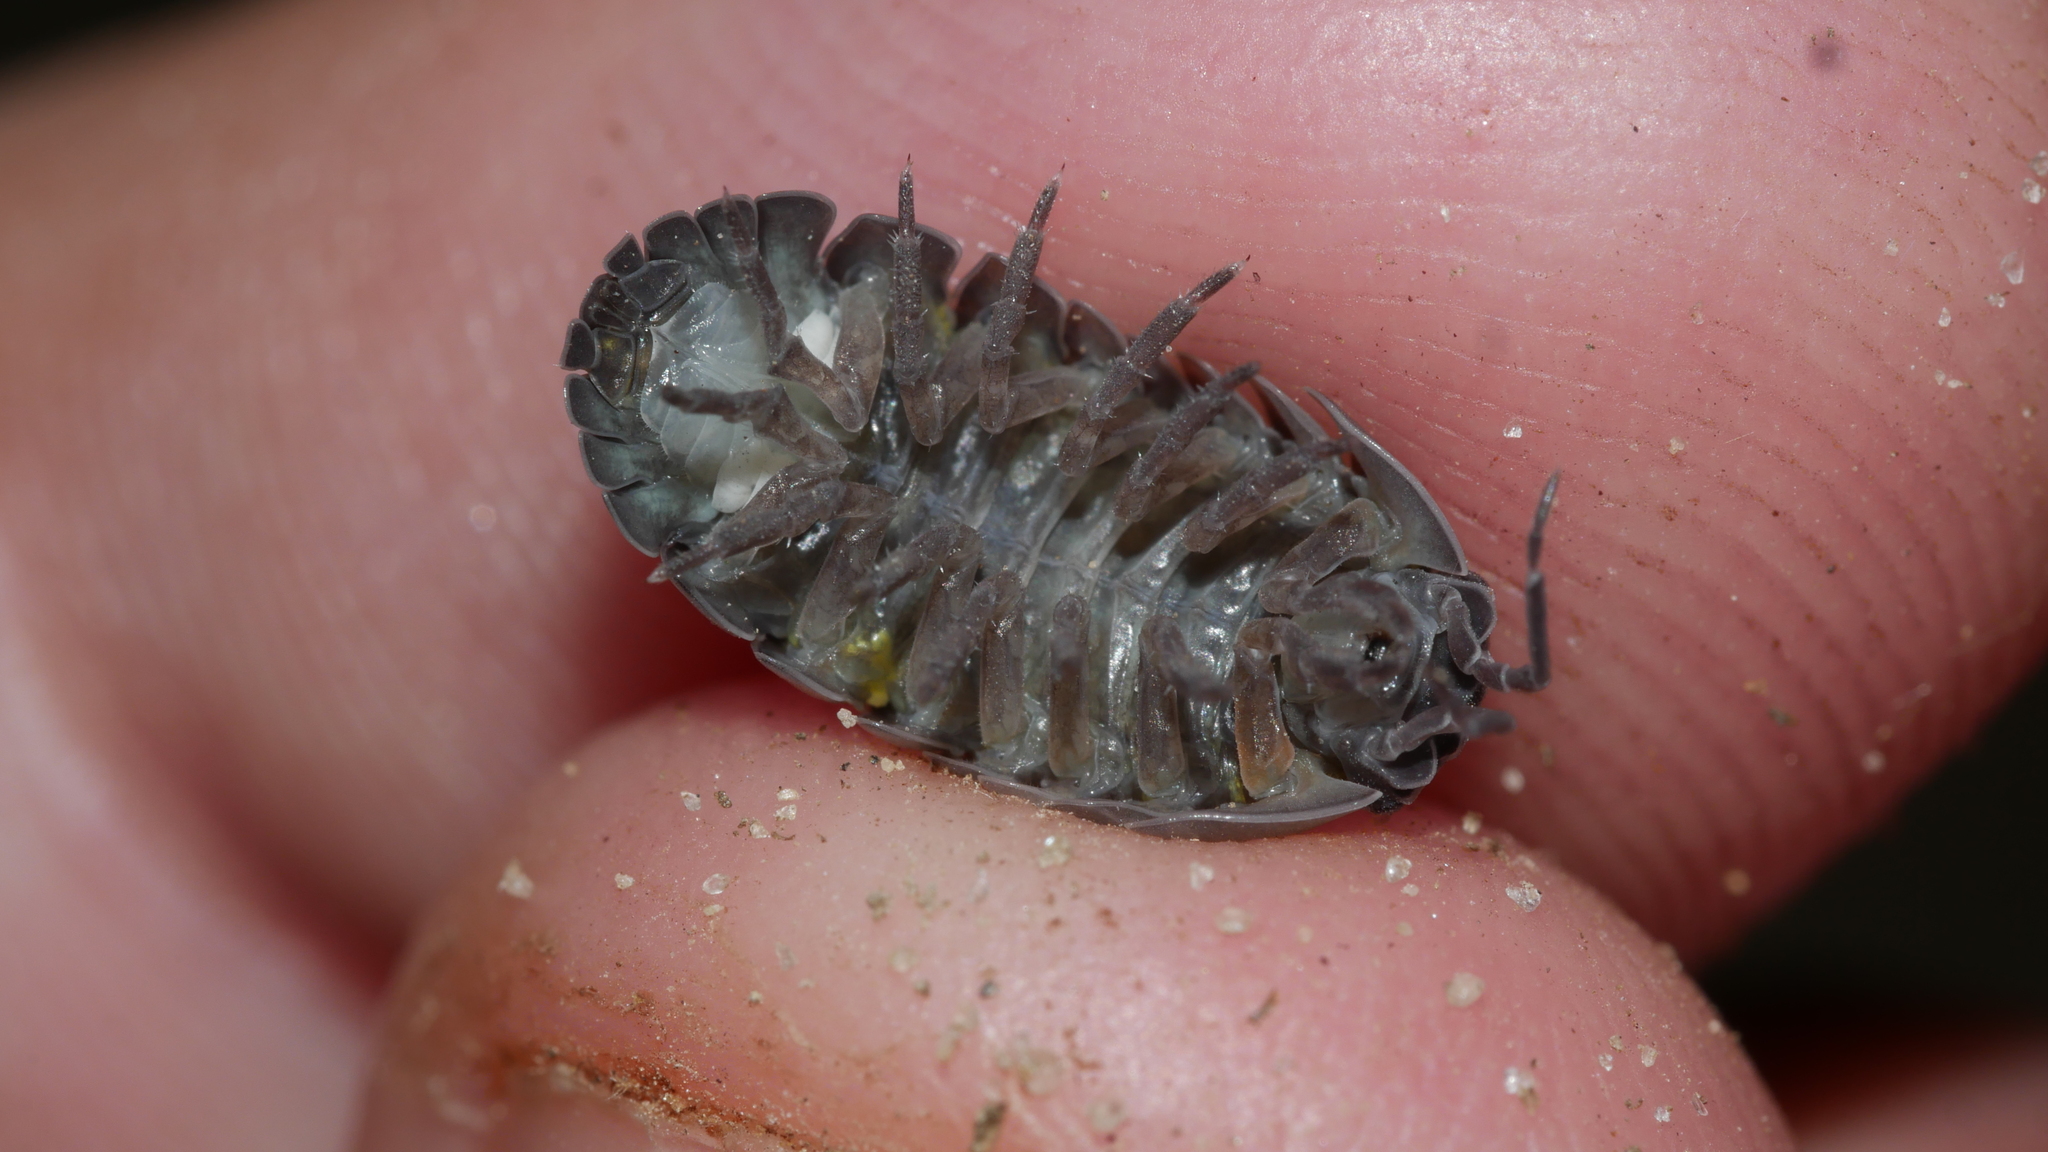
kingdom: Animalia
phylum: Arthropoda
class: Malacostraca
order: Isopoda
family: Armadillidiidae
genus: Armadillidium
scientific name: Armadillidium vulgare
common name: Common pill woodlouse
